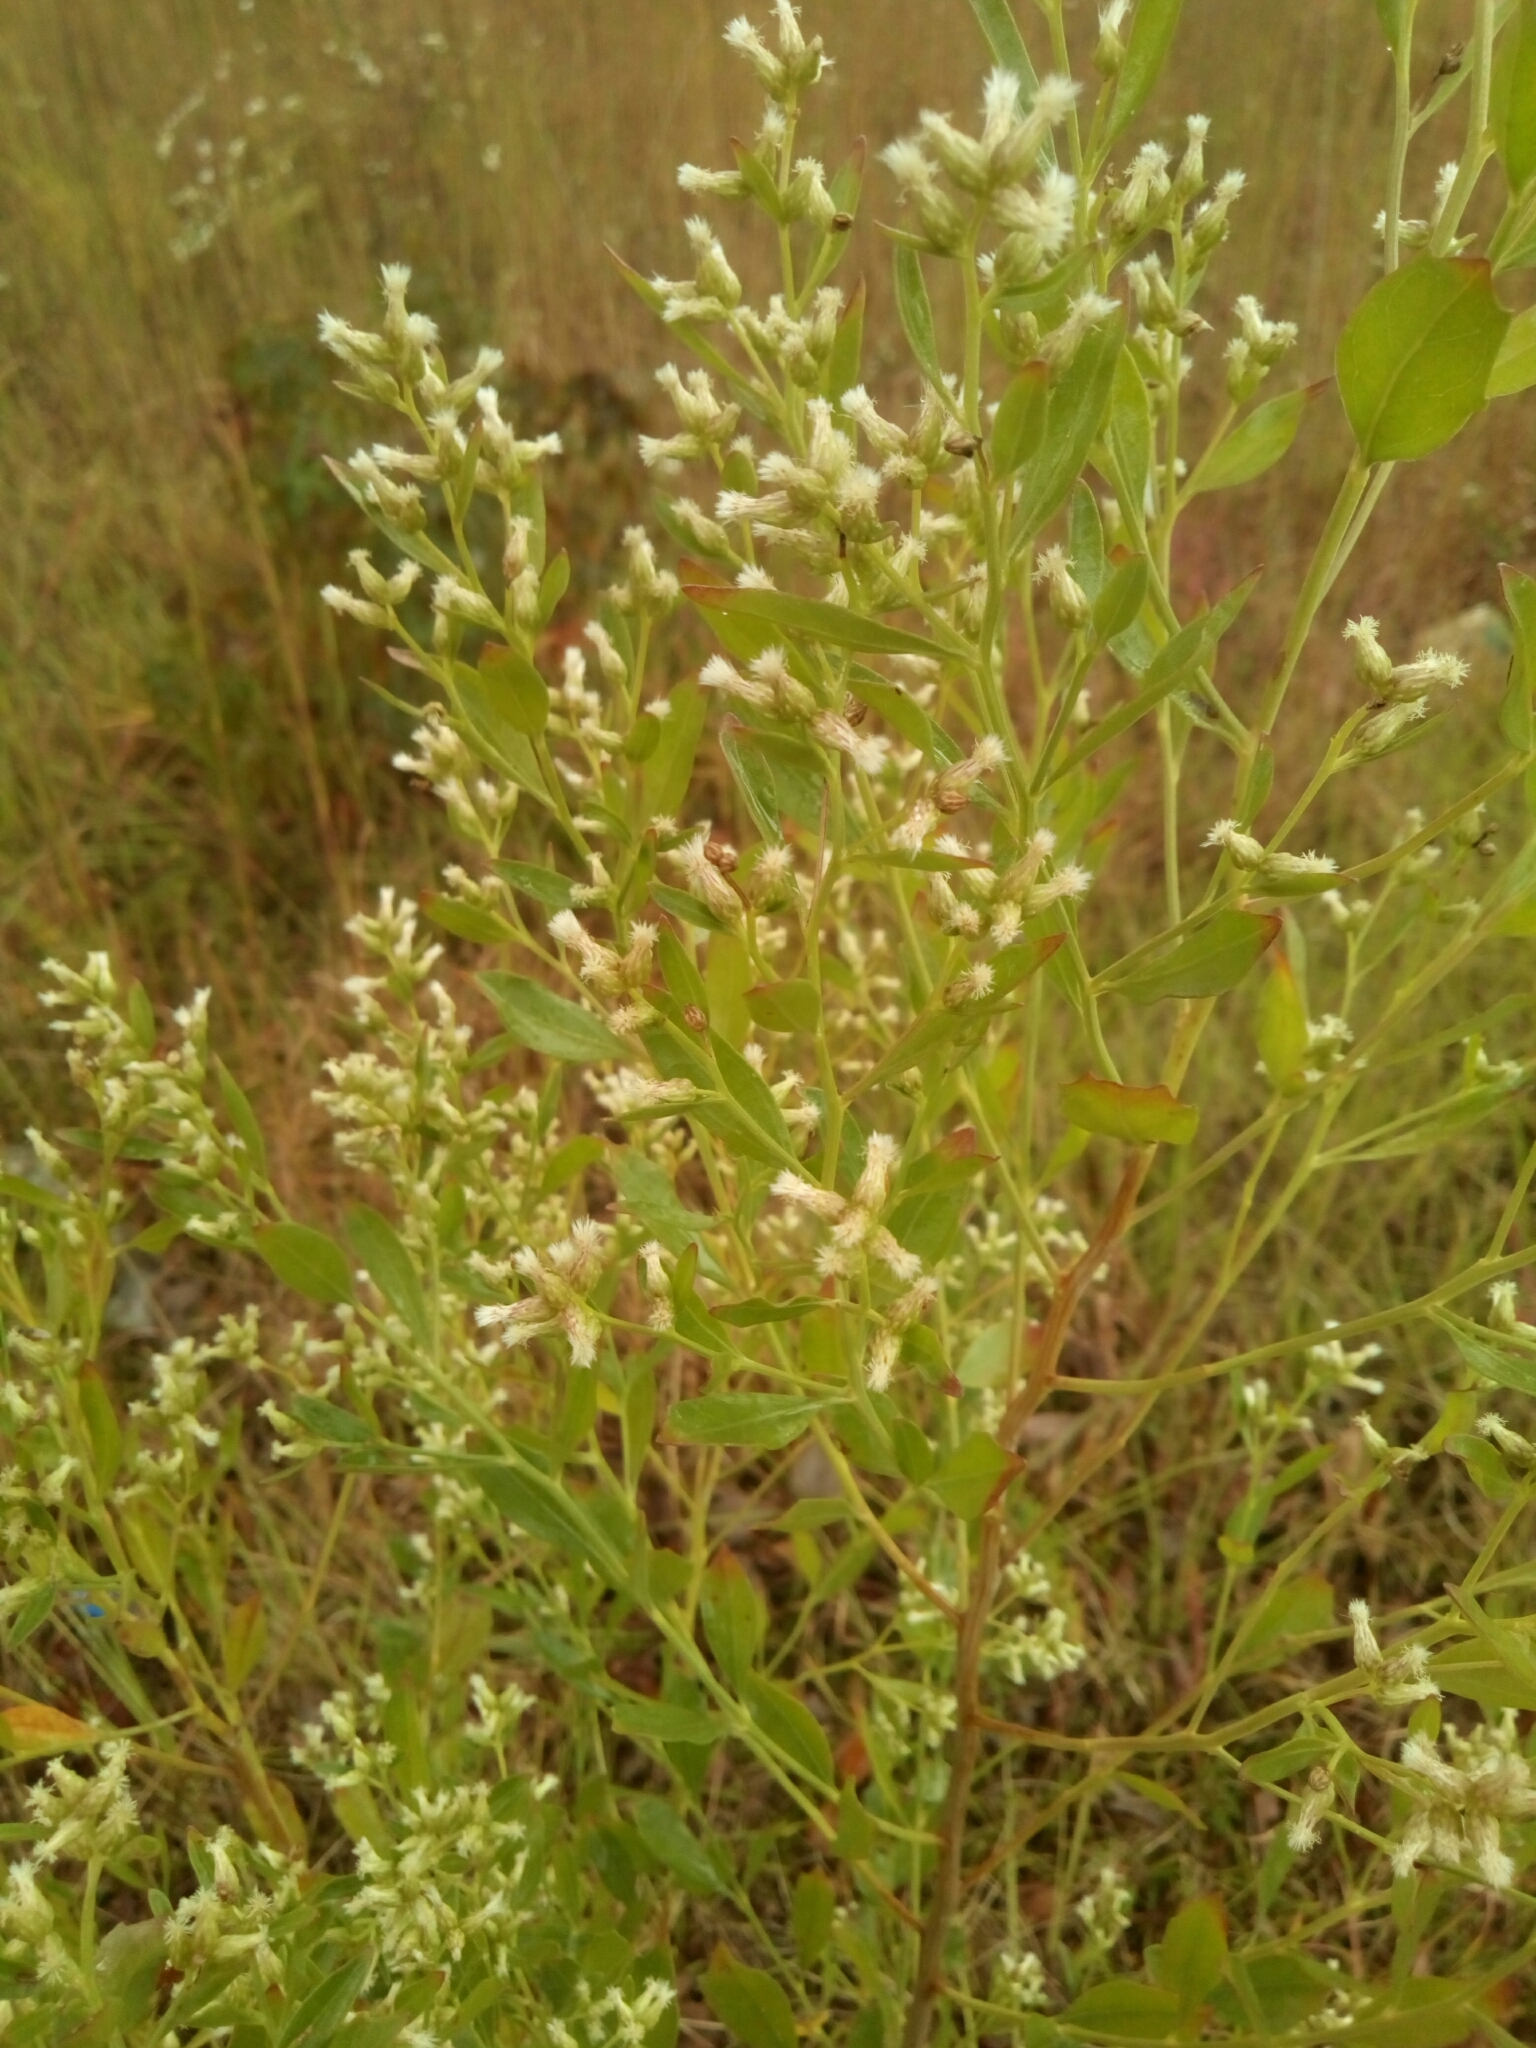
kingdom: Plantae
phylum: Tracheophyta
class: Magnoliopsida
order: Asterales
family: Asteraceae
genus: Baccharis
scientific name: Baccharis halimifolia
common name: Eastern baccharis
